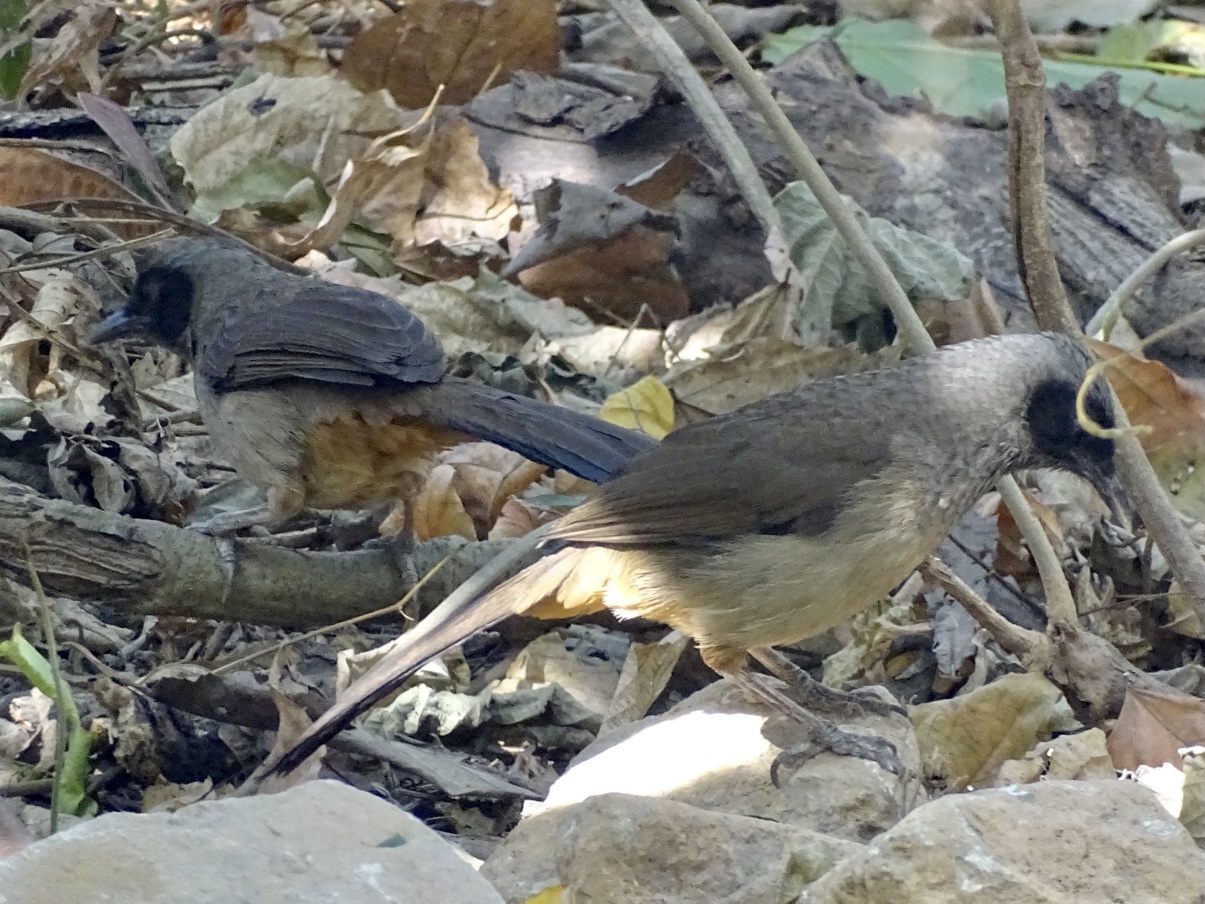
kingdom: Animalia
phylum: Chordata
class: Aves
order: Passeriformes
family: Leiothrichidae
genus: Garrulax
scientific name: Garrulax perspicillatus
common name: Masked laughingthrush
